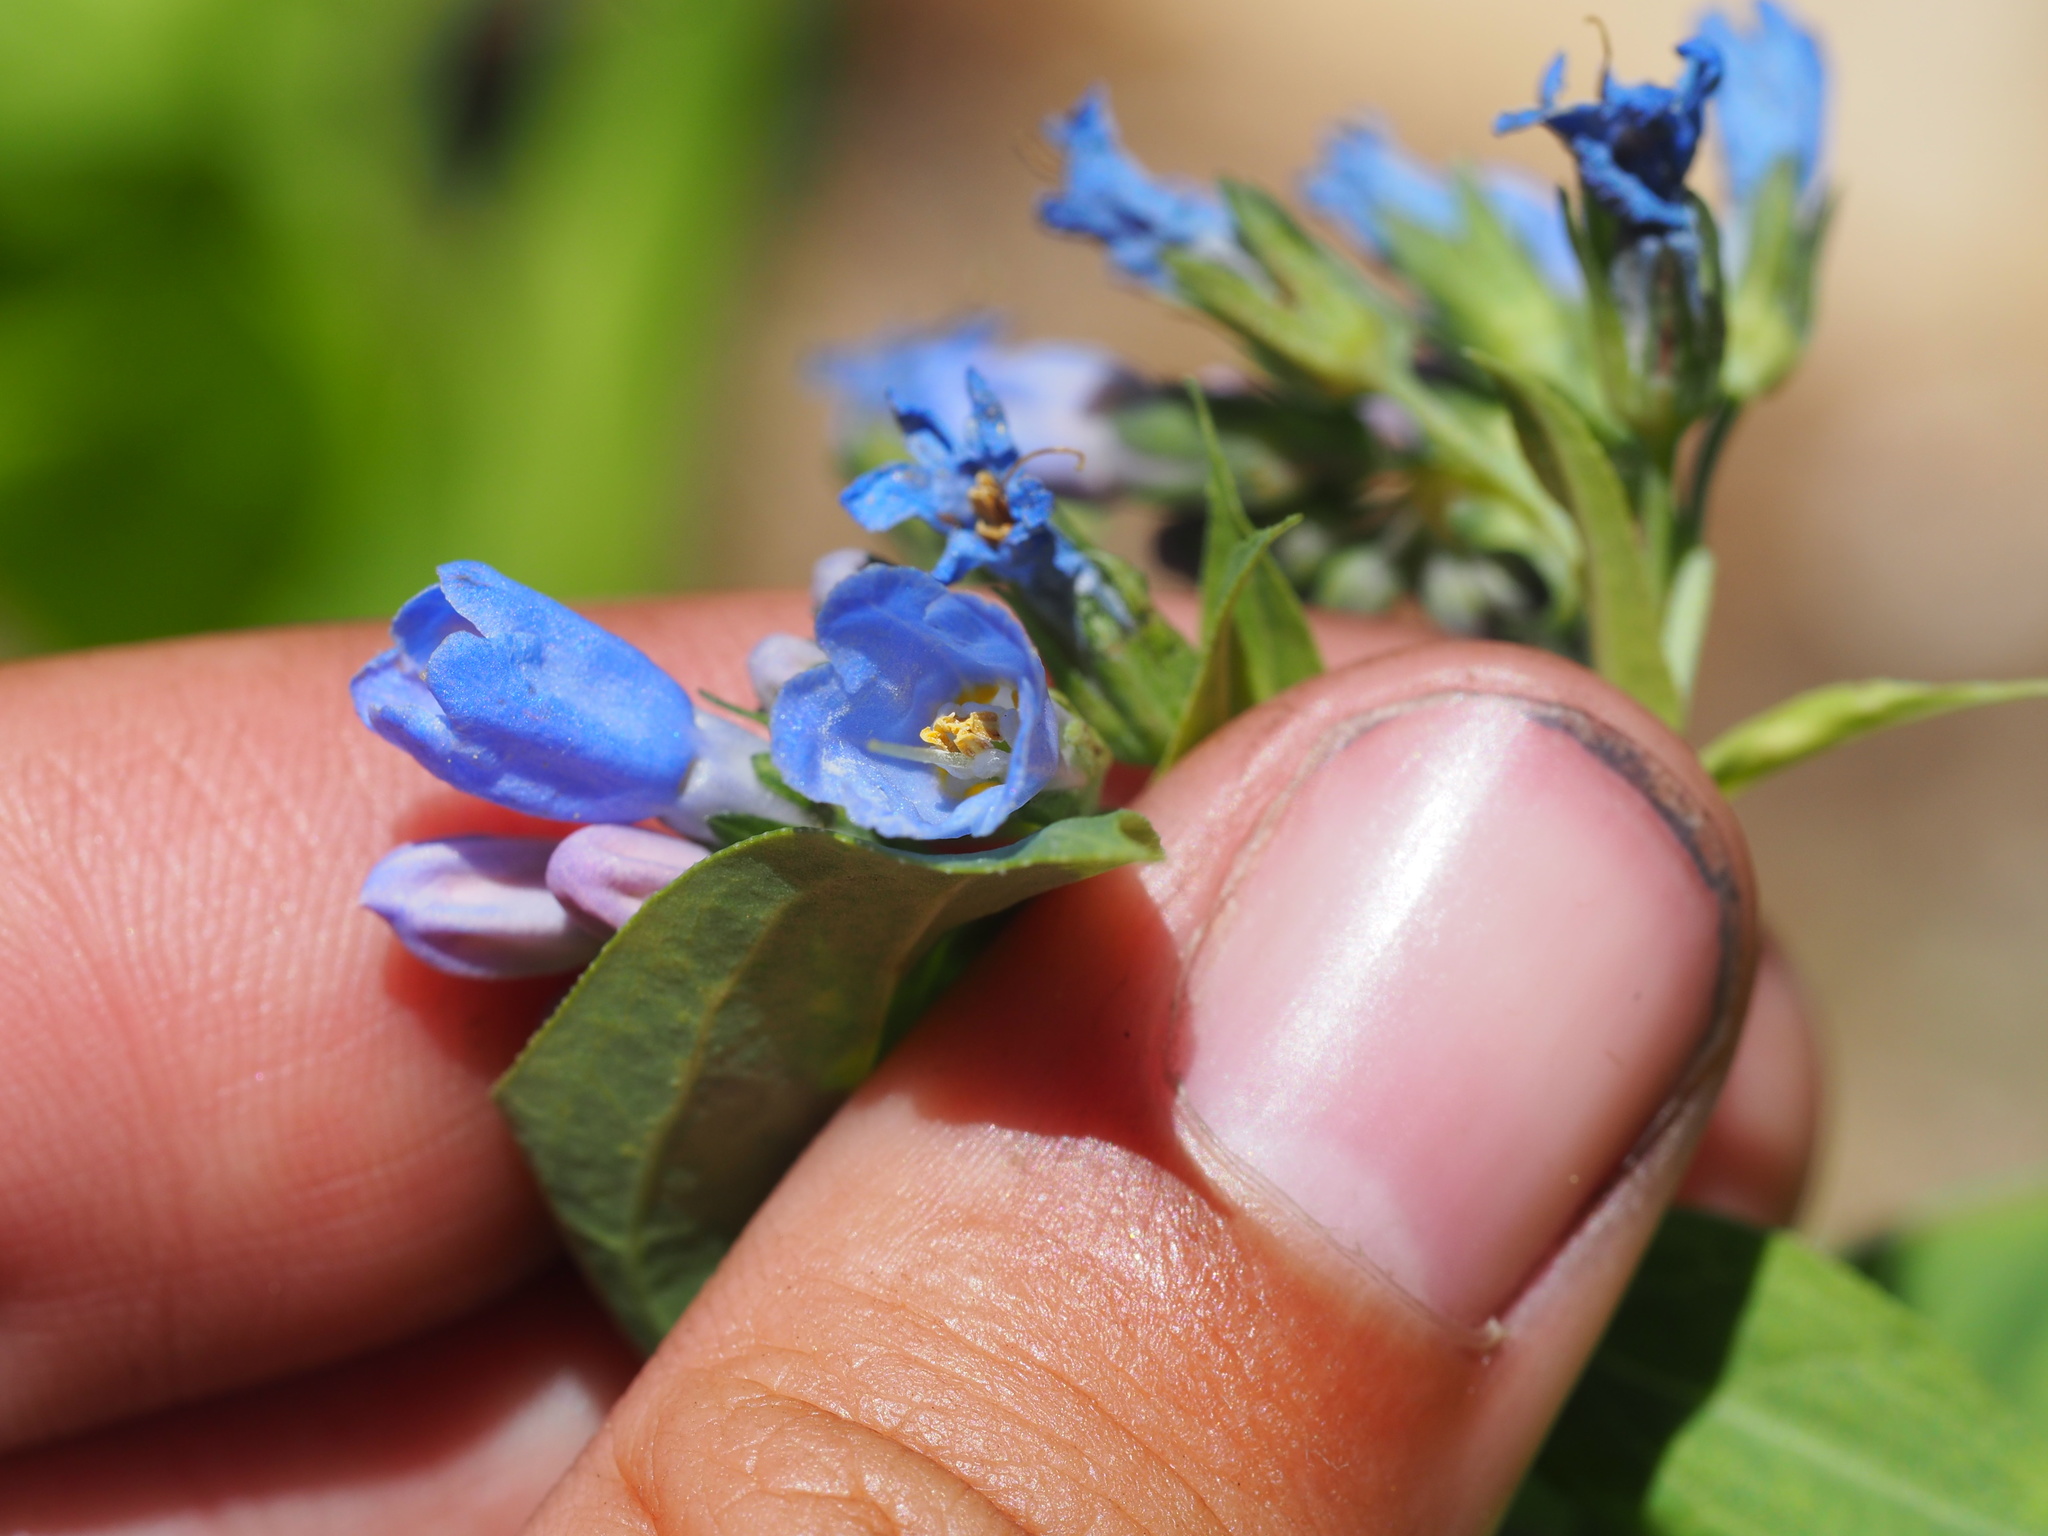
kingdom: Plantae
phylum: Tracheophyta
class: Magnoliopsida
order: Boraginales
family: Boraginaceae
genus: Mertensia
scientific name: Mertensia ciliata
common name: Tall chiming-bells
